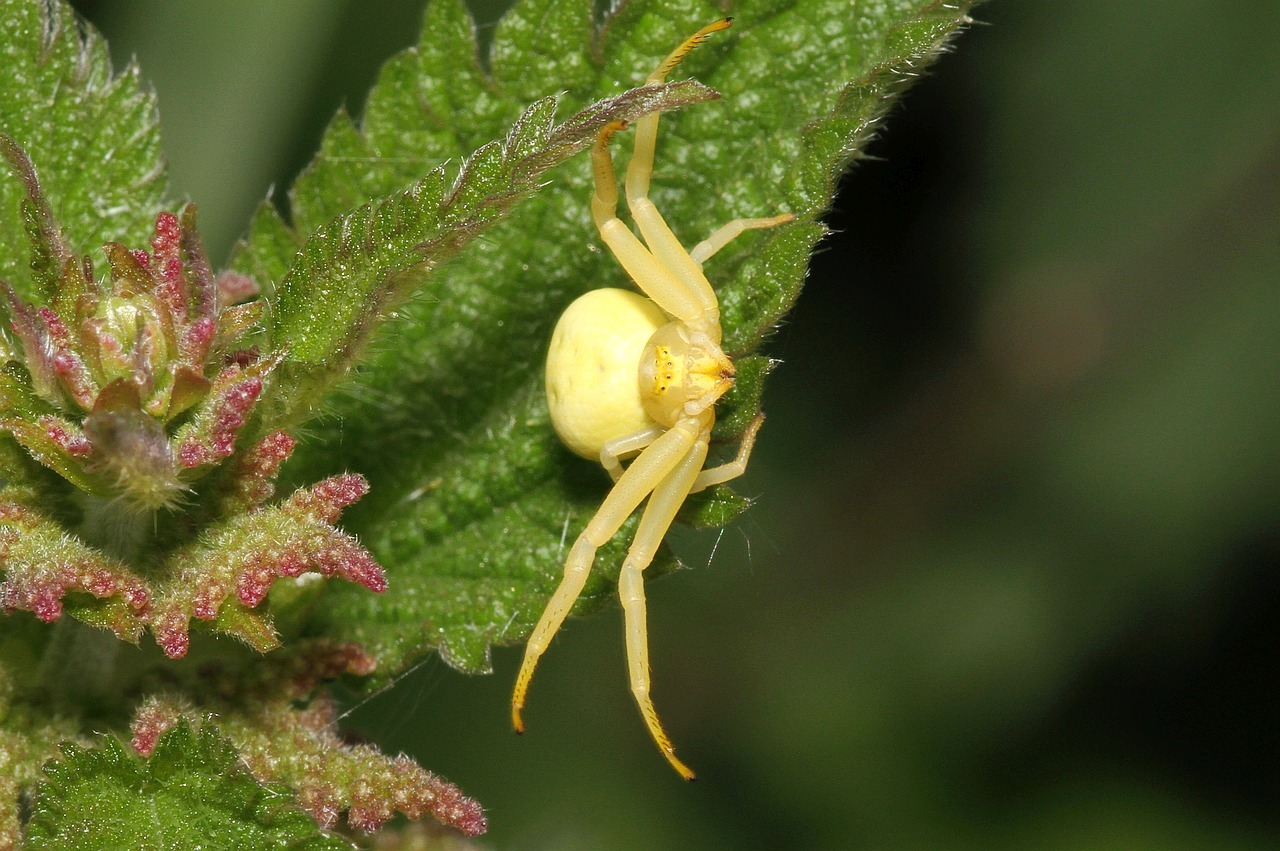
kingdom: Animalia
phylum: Arthropoda
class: Arachnida
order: Araneae
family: Thomisidae
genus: Misumena
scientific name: Misumena vatia
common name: Goldenrod crab spider
